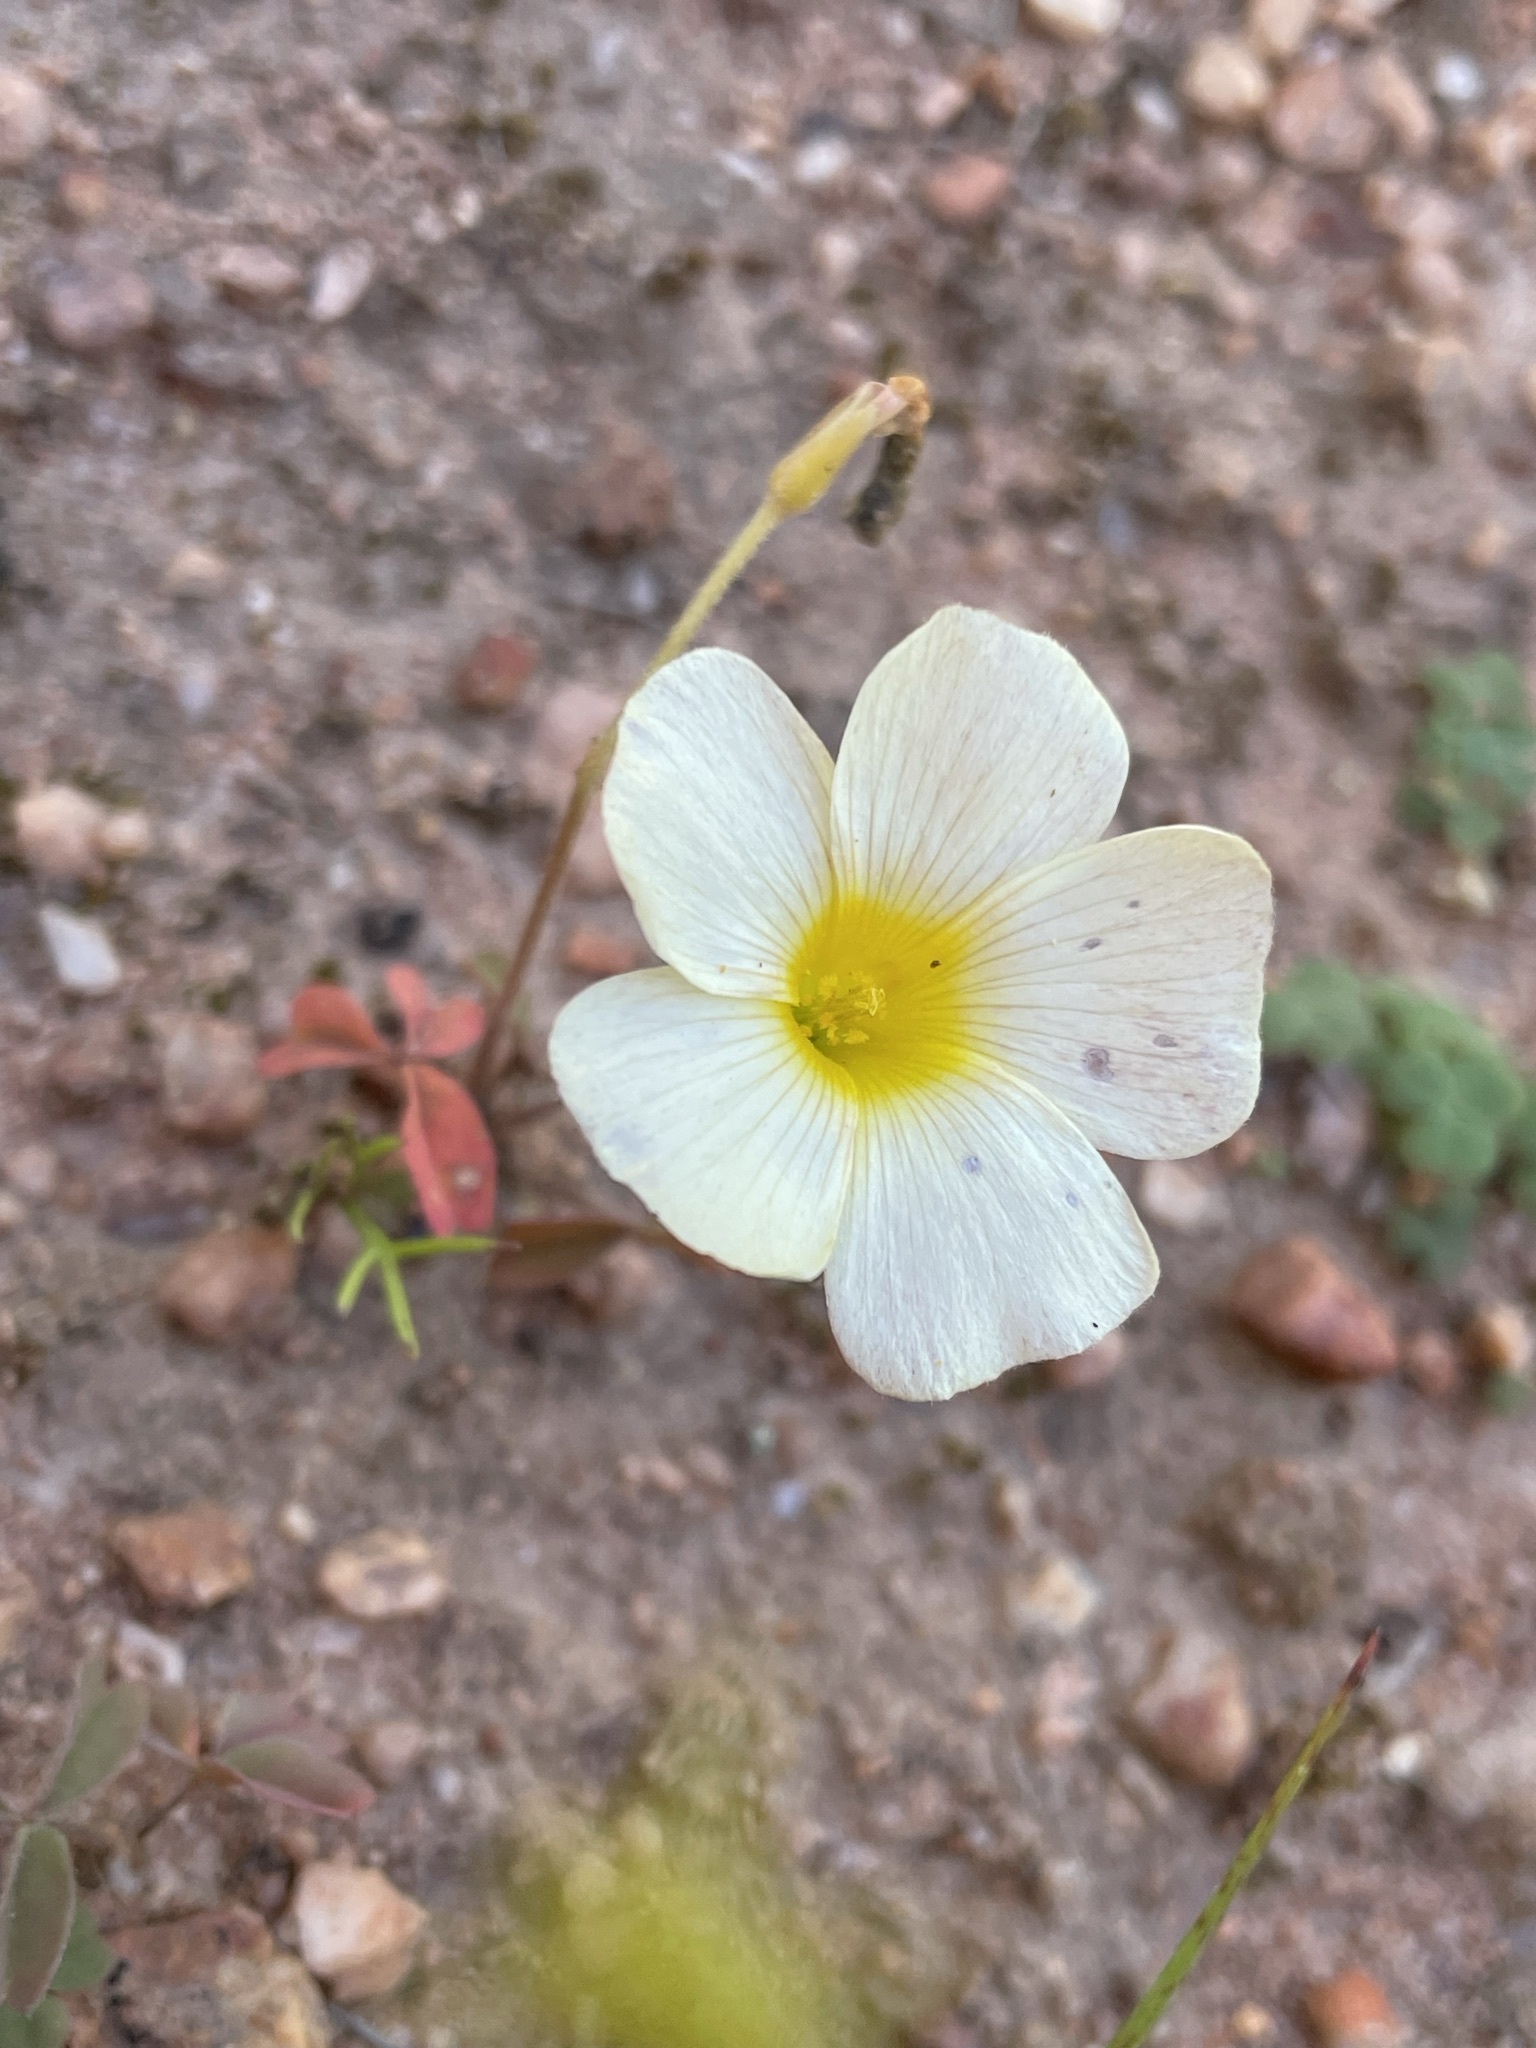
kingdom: Plantae
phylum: Tracheophyta
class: Magnoliopsida
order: Oxalidales
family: Oxalidaceae
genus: Oxalis
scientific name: Oxalis obtusa
